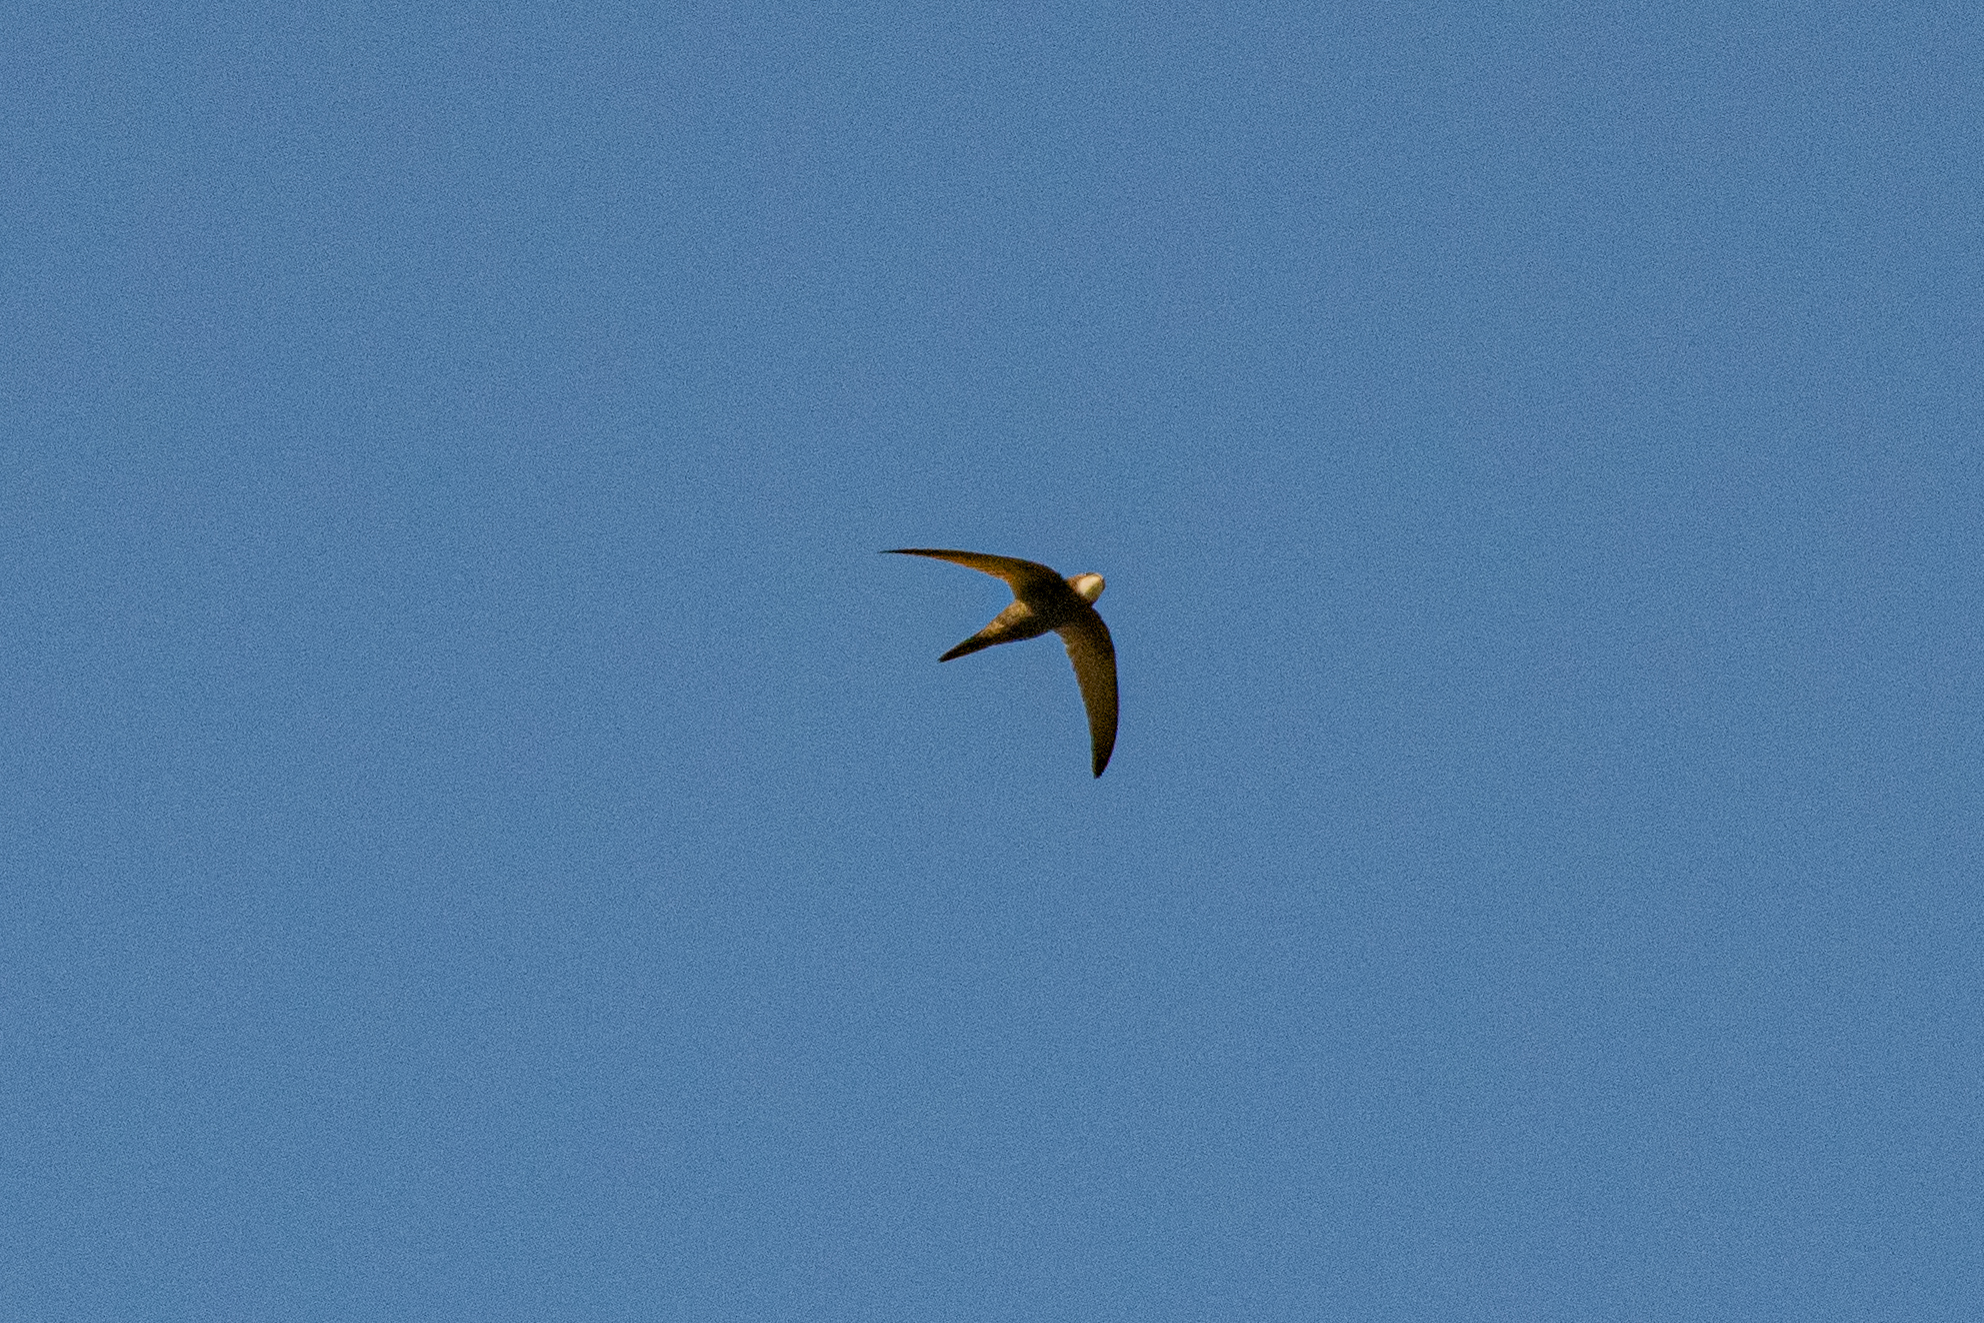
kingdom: Animalia
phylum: Chordata
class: Aves
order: Apodiformes
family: Apodidae
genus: Apus
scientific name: Apus apus
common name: Common swift
